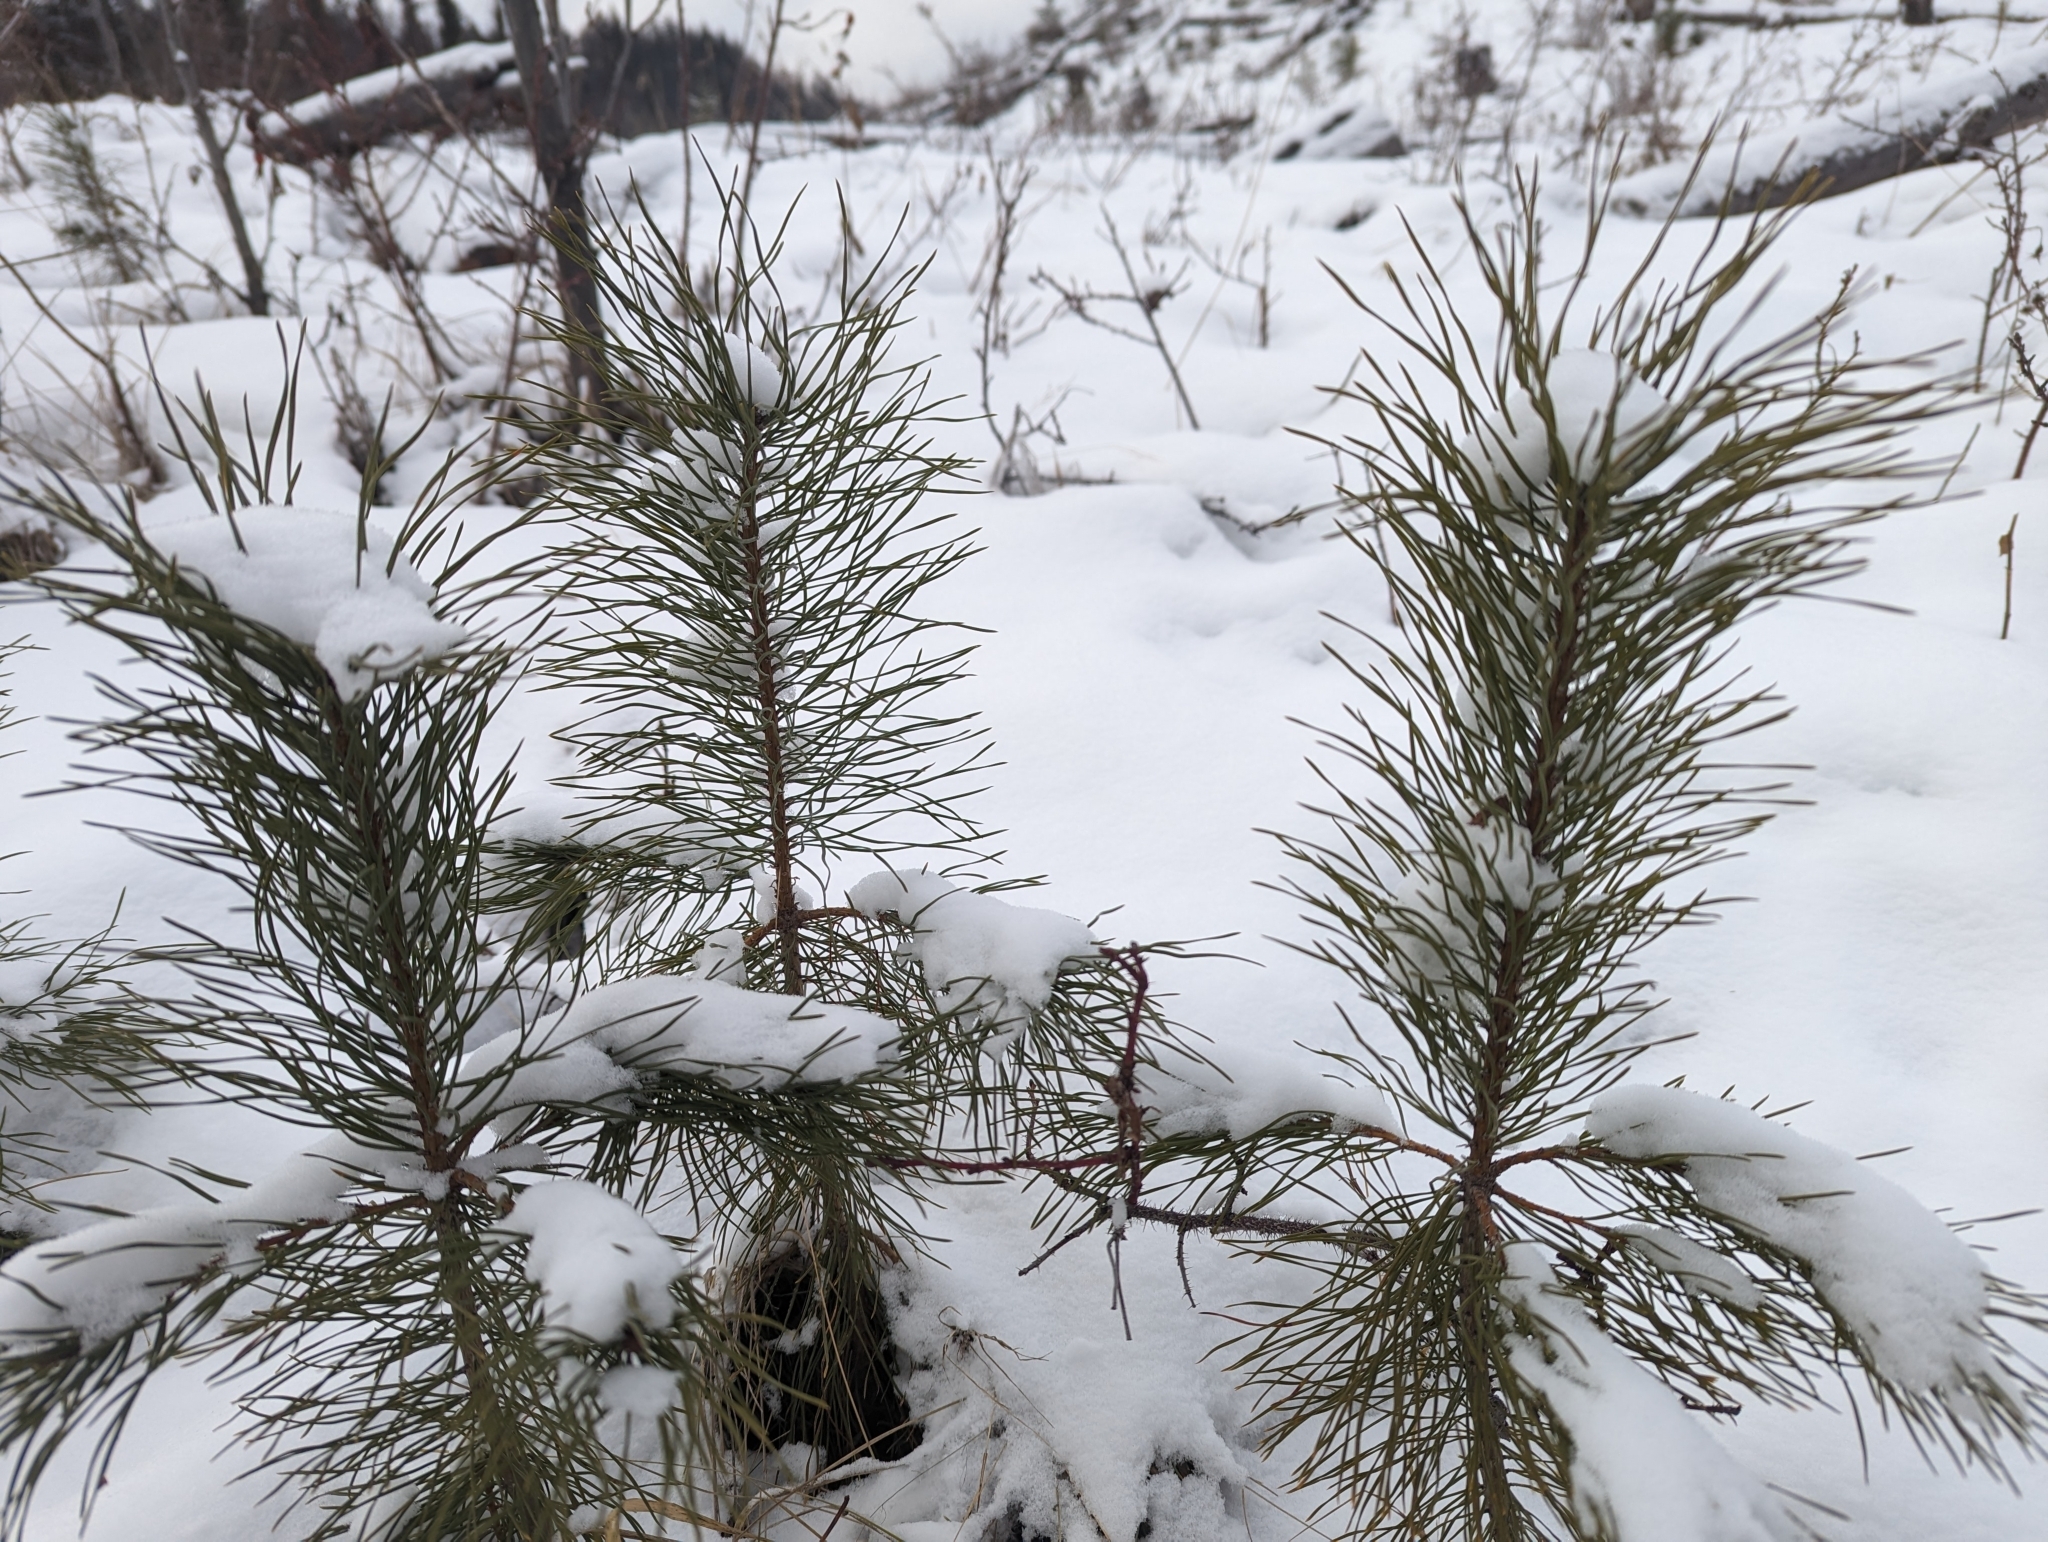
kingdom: Plantae
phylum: Tracheophyta
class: Pinopsida
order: Pinales
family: Pinaceae
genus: Pinus
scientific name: Pinus contorta
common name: Lodgepole pine
